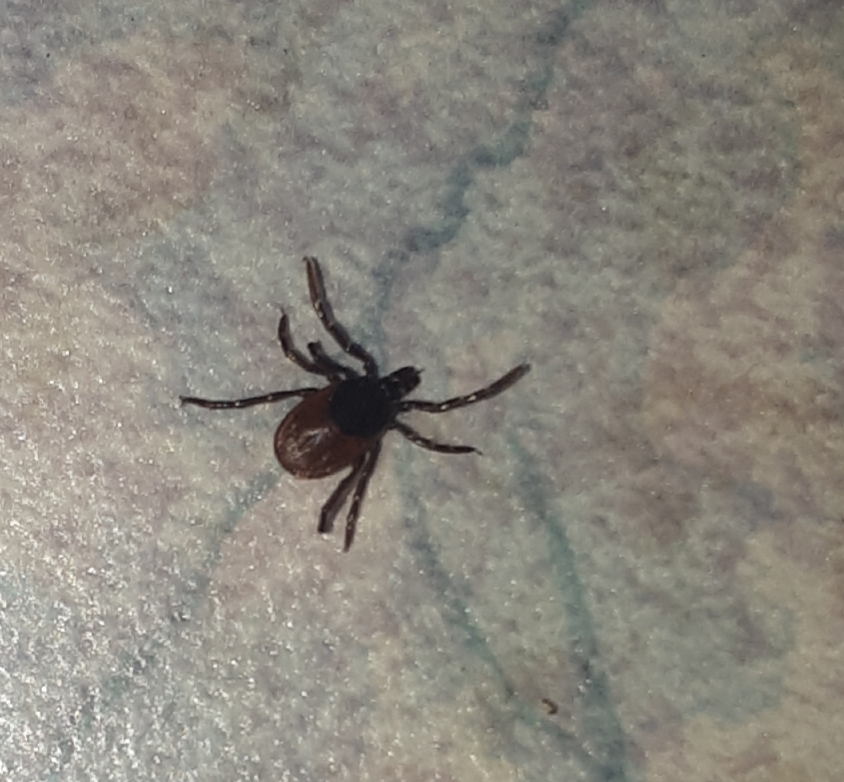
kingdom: Animalia
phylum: Arthropoda
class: Arachnida
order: Ixodida
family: Ixodidae
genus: Ixodes
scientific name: Ixodes pacificus
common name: California black-legged tick
